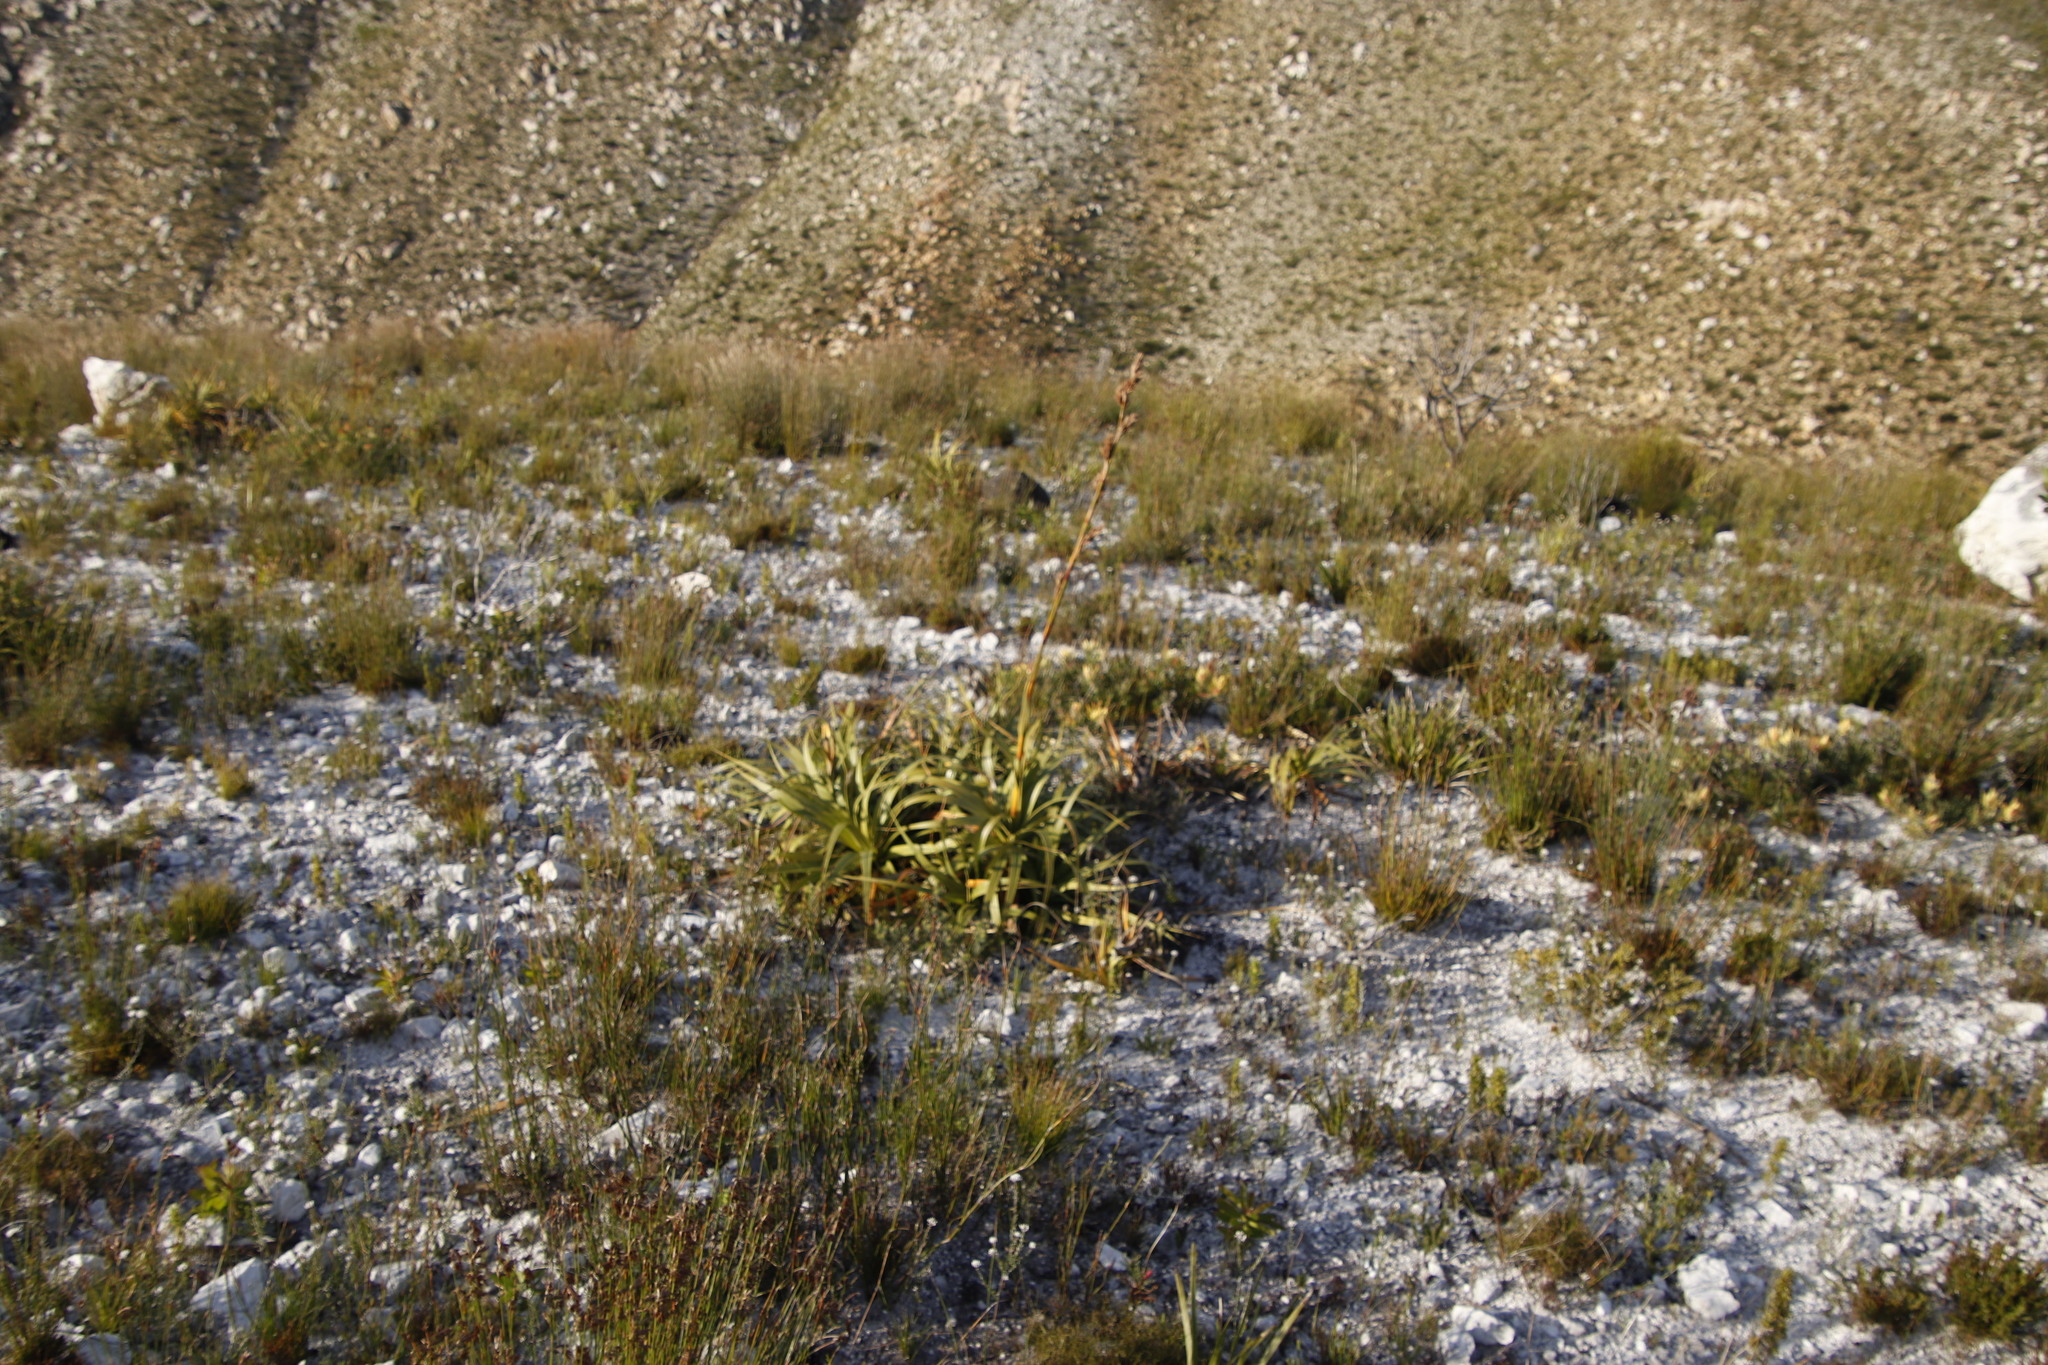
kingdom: Plantae
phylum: Tracheophyta
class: Liliopsida
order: Poales
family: Cyperaceae
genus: Tetraria
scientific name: Tetraria thermalis
